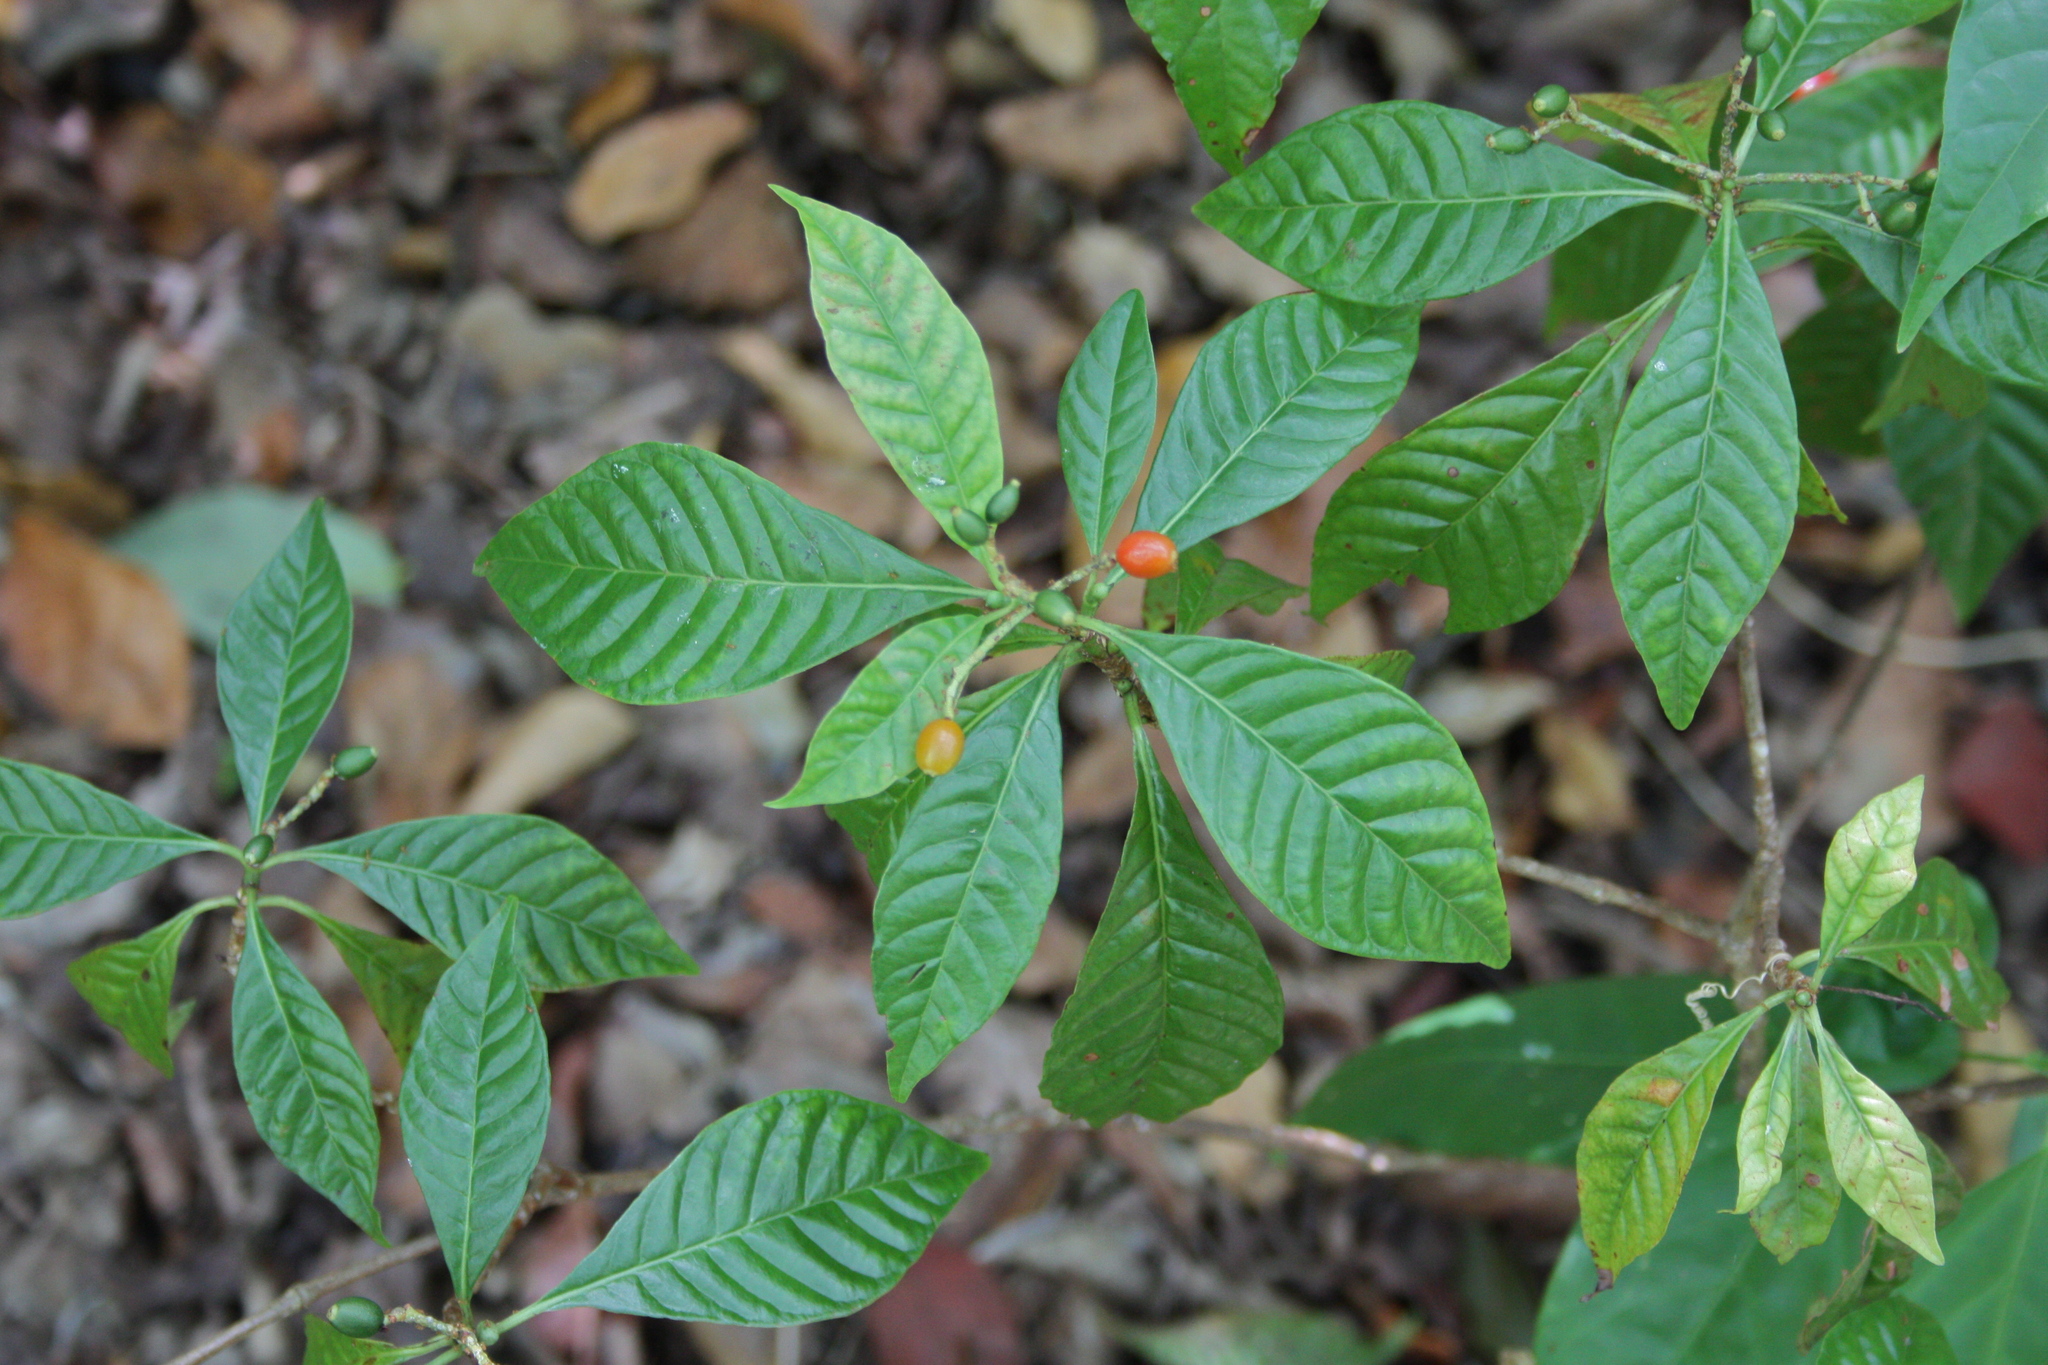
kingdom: Plantae
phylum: Tracheophyta
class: Magnoliopsida
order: Gentianales
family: Rubiaceae
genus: Psychotria
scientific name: Psychotria nervosa
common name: Bastard cankerberry
